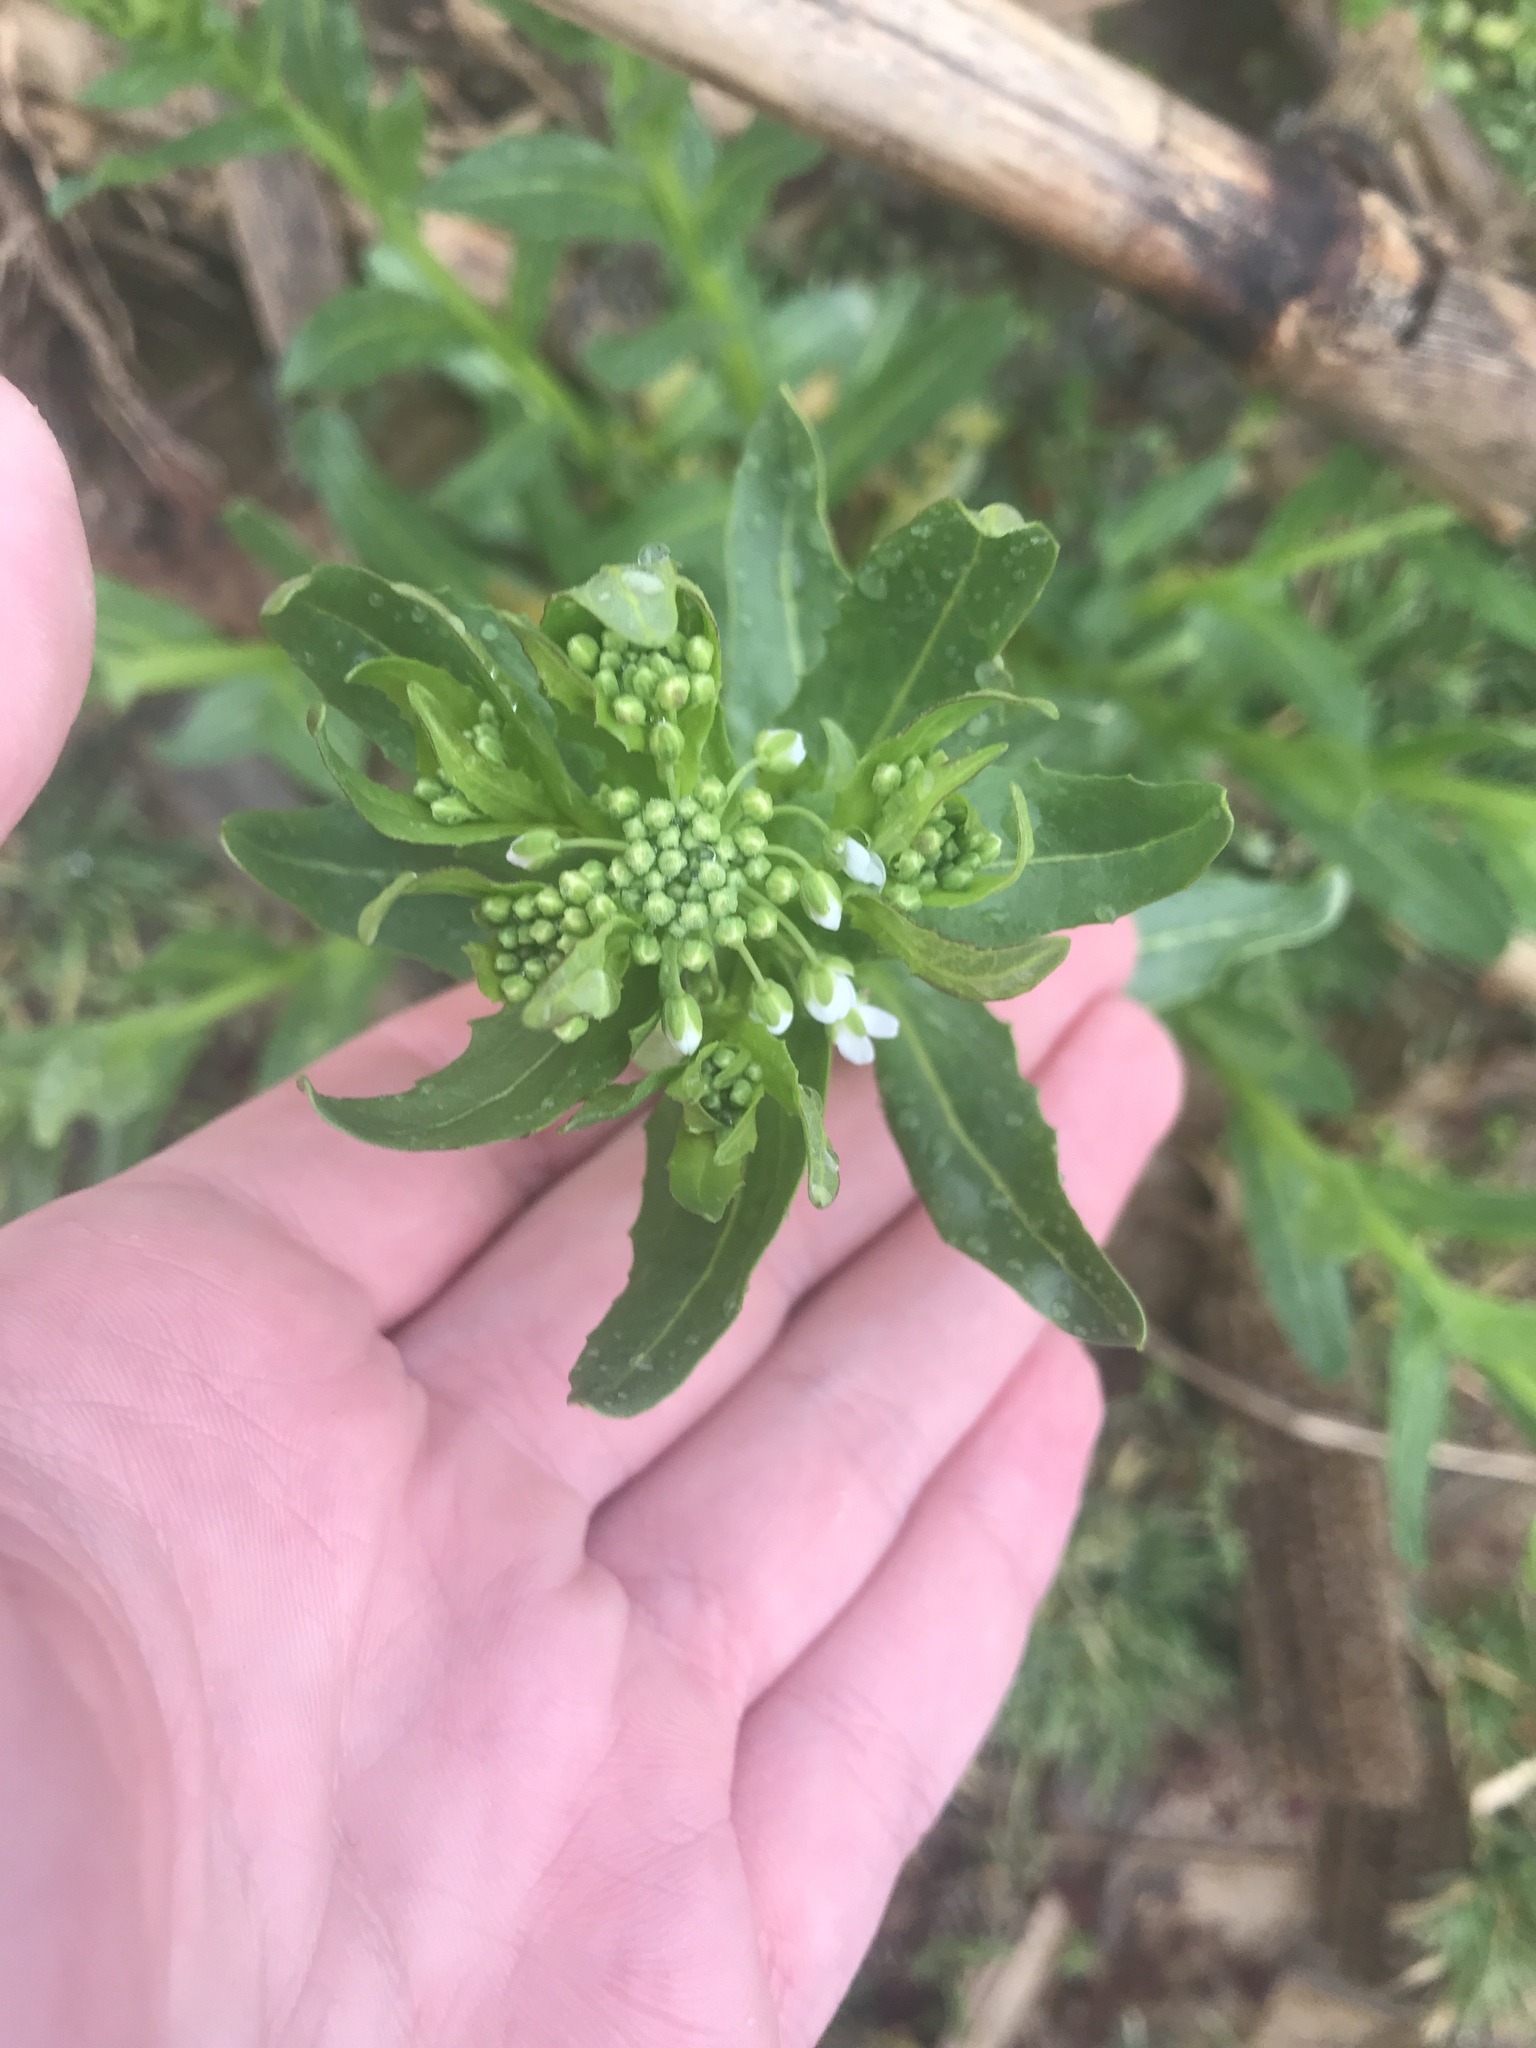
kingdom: Plantae
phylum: Tracheophyta
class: Magnoliopsida
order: Brassicales
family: Brassicaceae
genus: Thlaspi
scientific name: Thlaspi arvense
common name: Field pennycress
